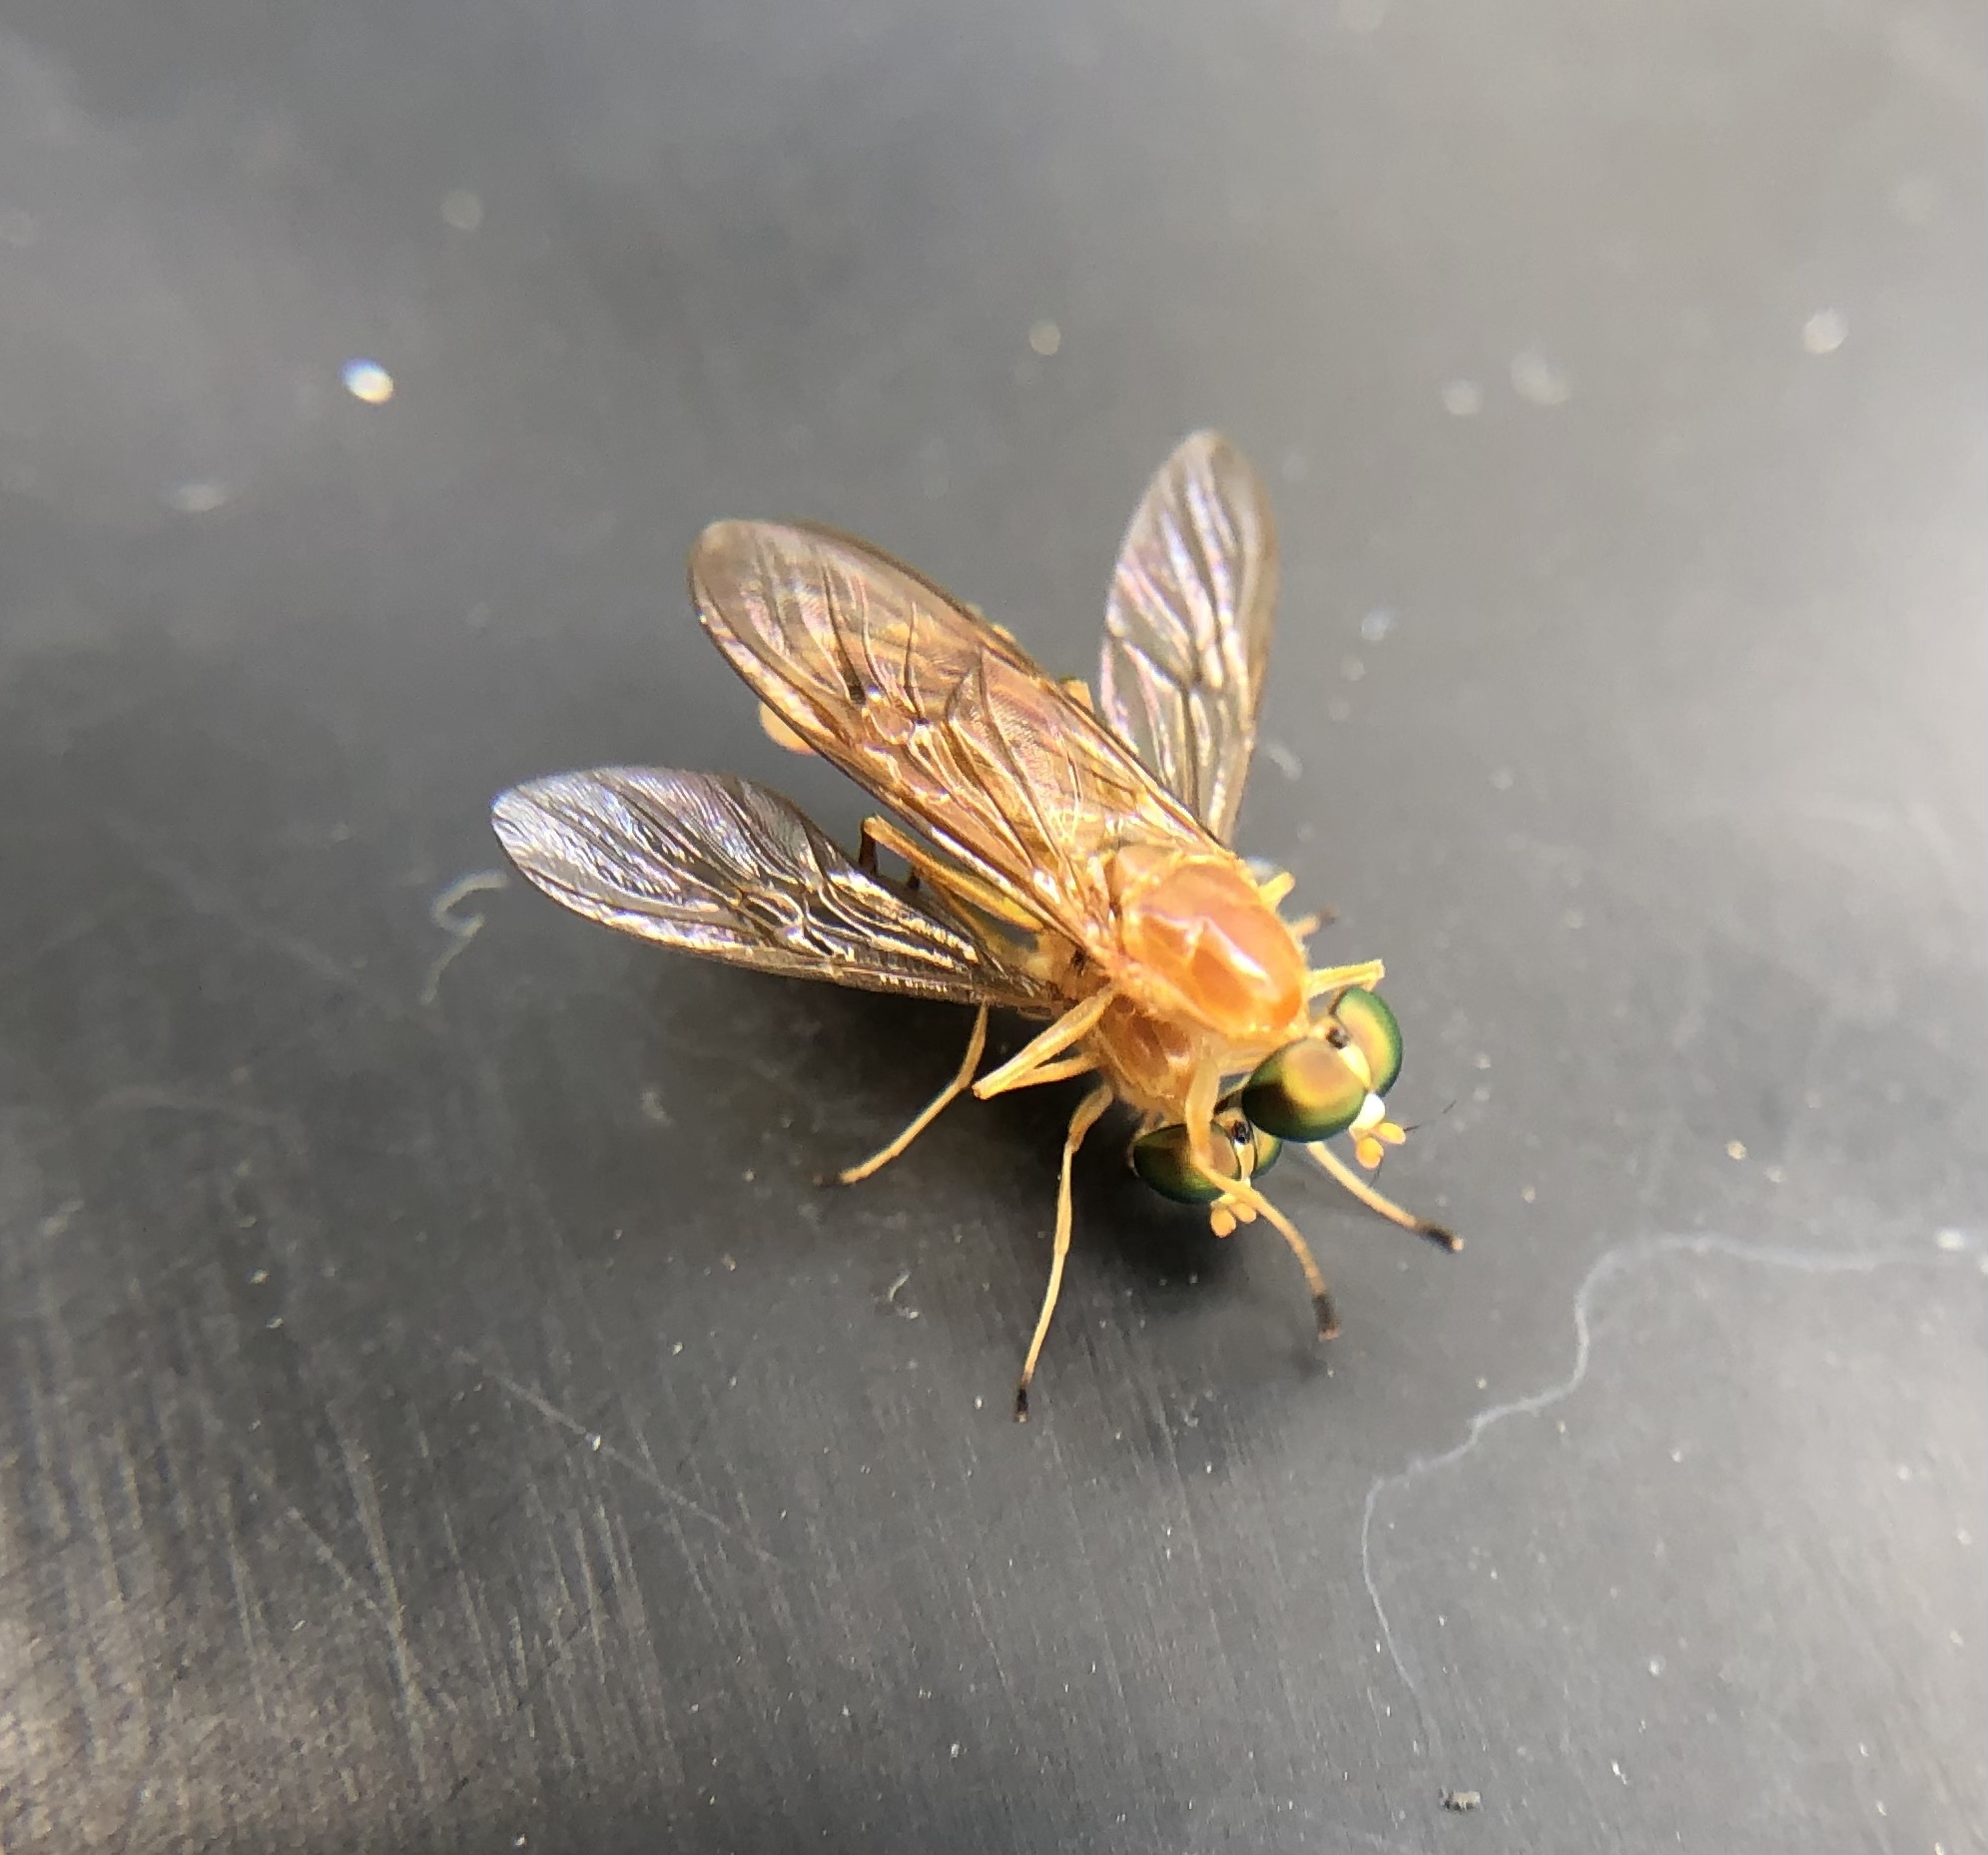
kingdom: Animalia
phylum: Arthropoda
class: Insecta
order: Diptera
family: Stratiomyidae
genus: Ptecticus
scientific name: Ptecticus trivittatus
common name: Compost fly
